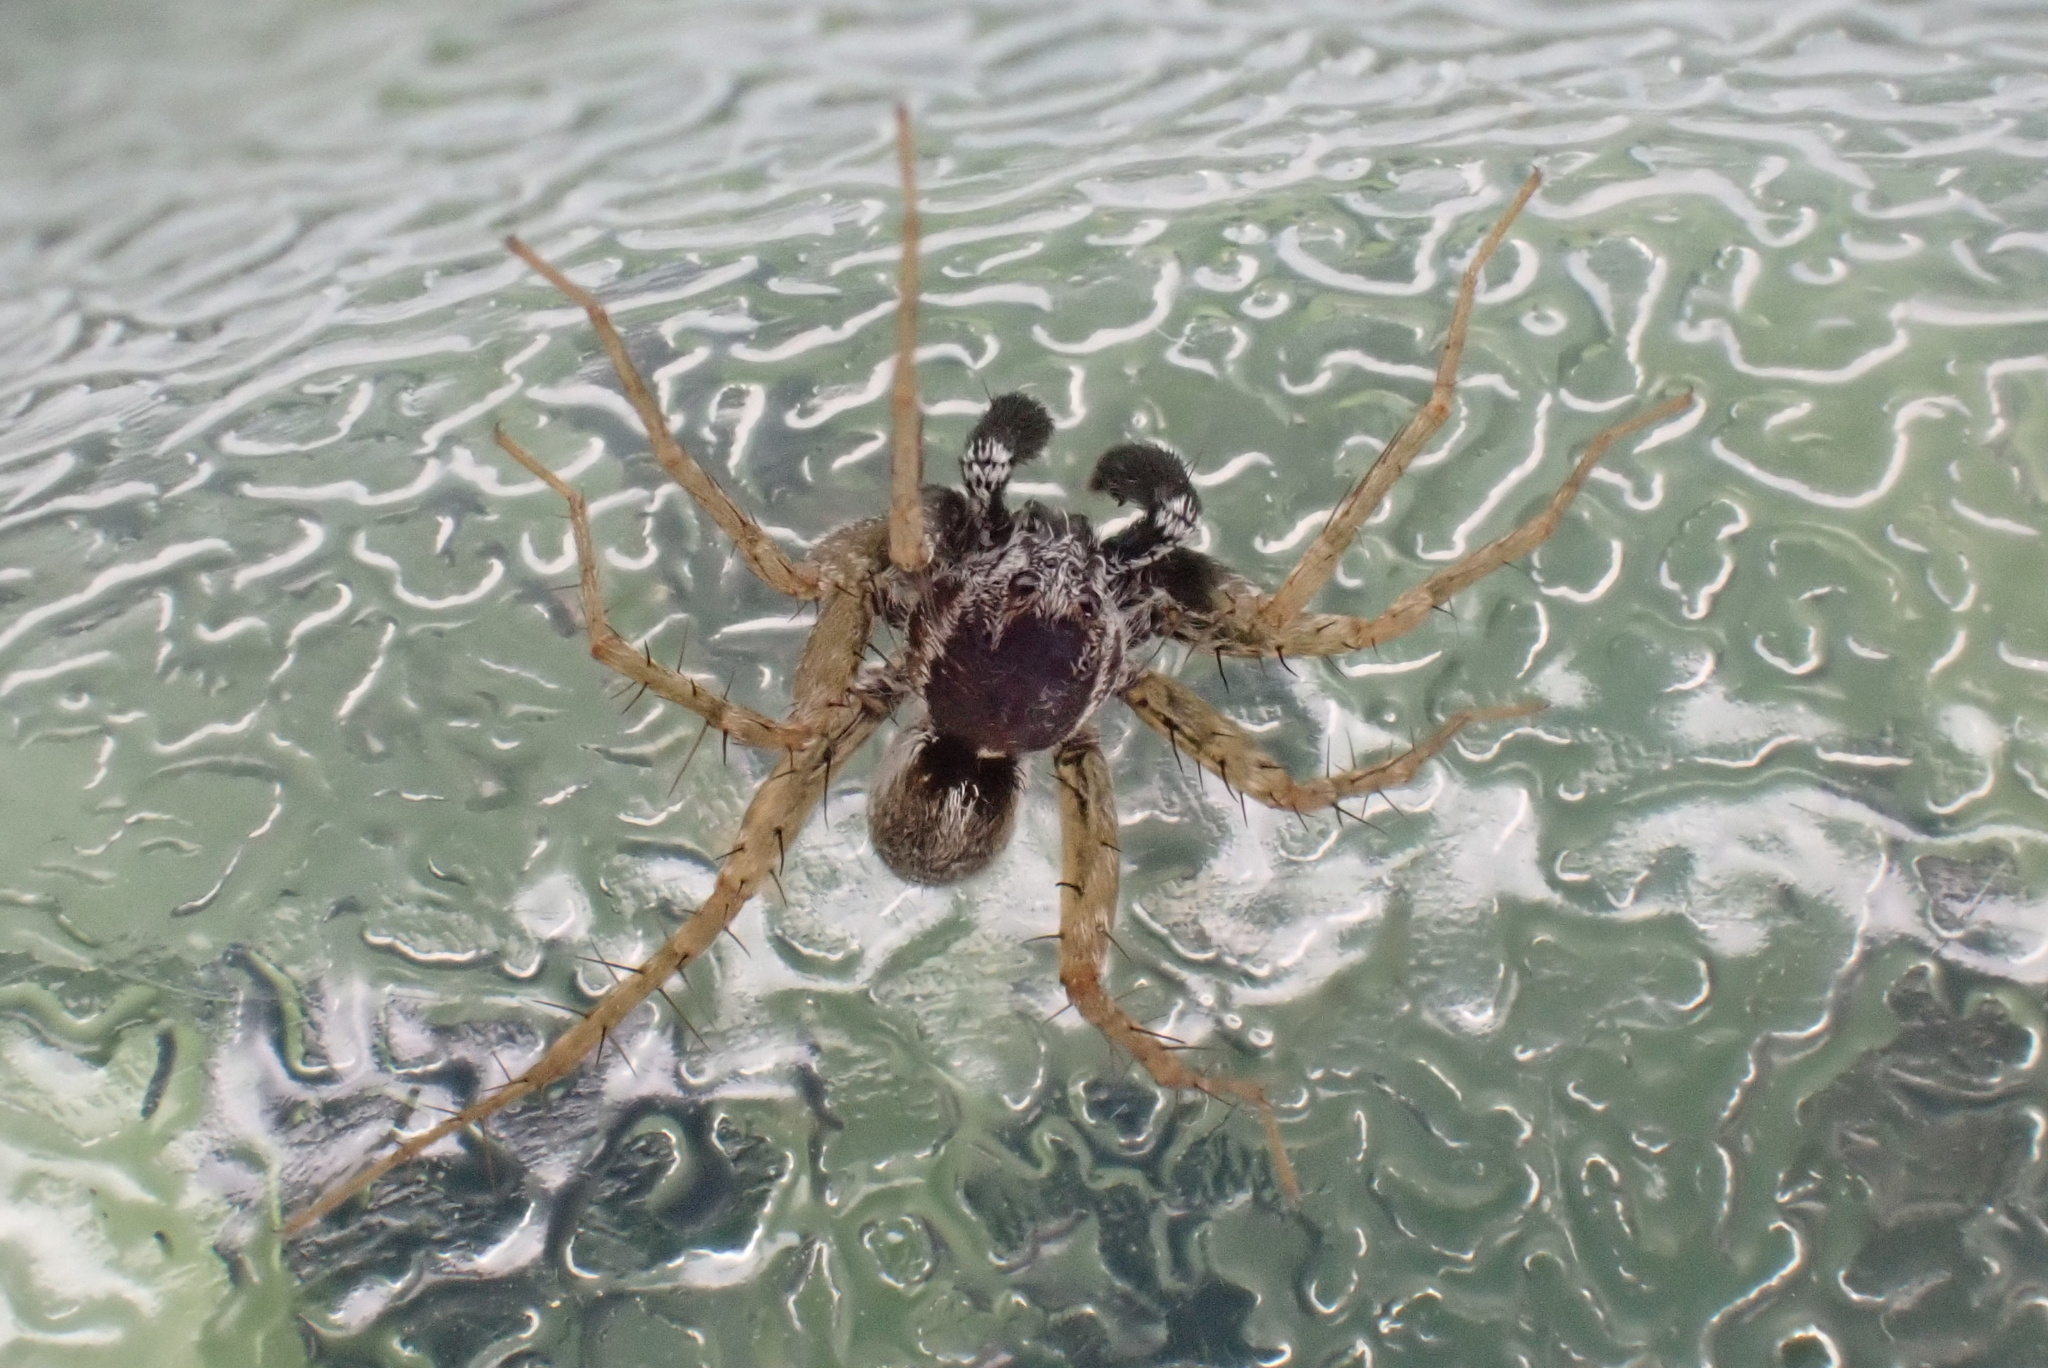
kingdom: Animalia
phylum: Arthropoda
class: Arachnida
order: Araneae
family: Lycosidae
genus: Pardosa
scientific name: Pardosa saxatilis
